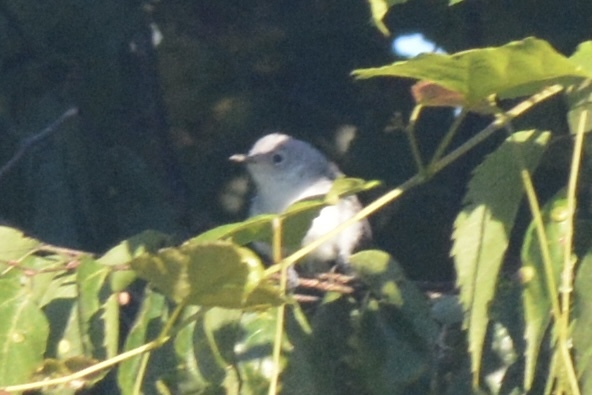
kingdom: Animalia
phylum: Chordata
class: Aves
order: Passeriformes
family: Polioptilidae
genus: Polioptila
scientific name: Polioptila caerulea
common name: Blue-gray gnatcatcher
